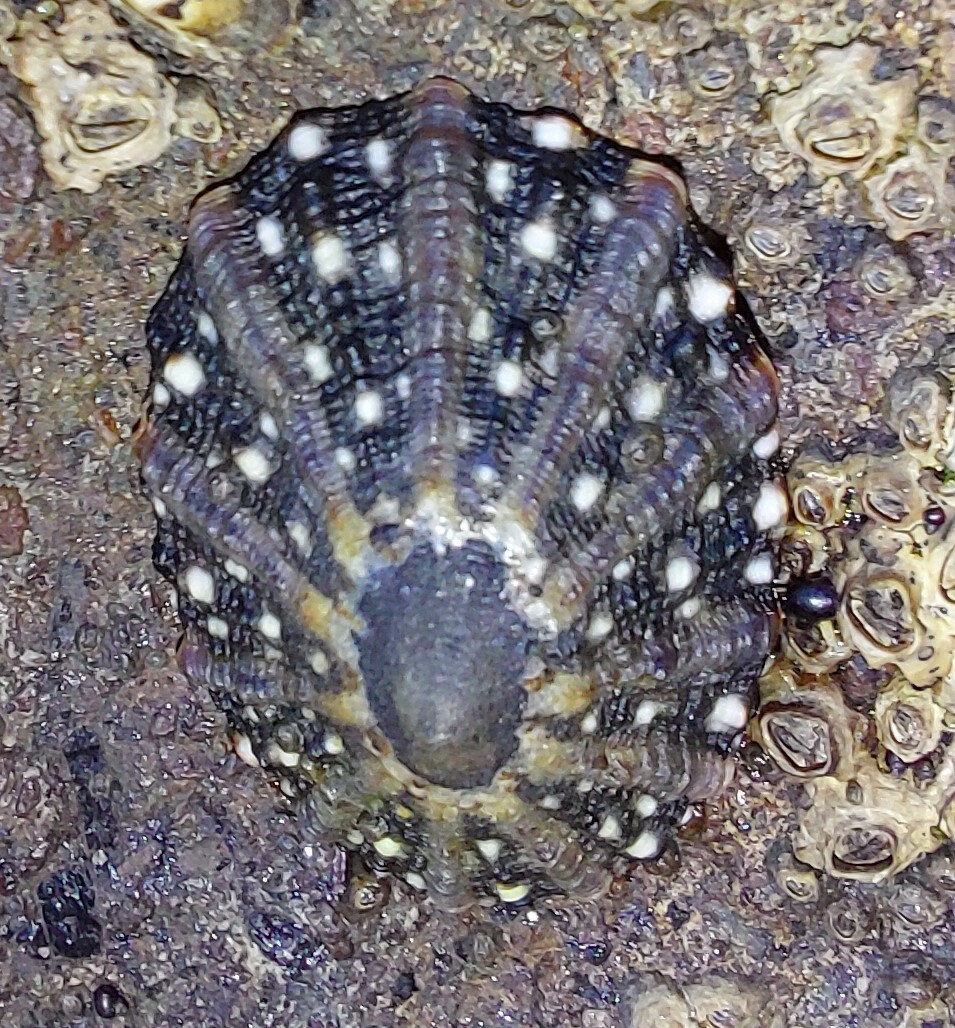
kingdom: Animalia
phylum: Mollusca
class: Gastropoda
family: Nacellidae
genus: Cellana
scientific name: Cellana ornata
